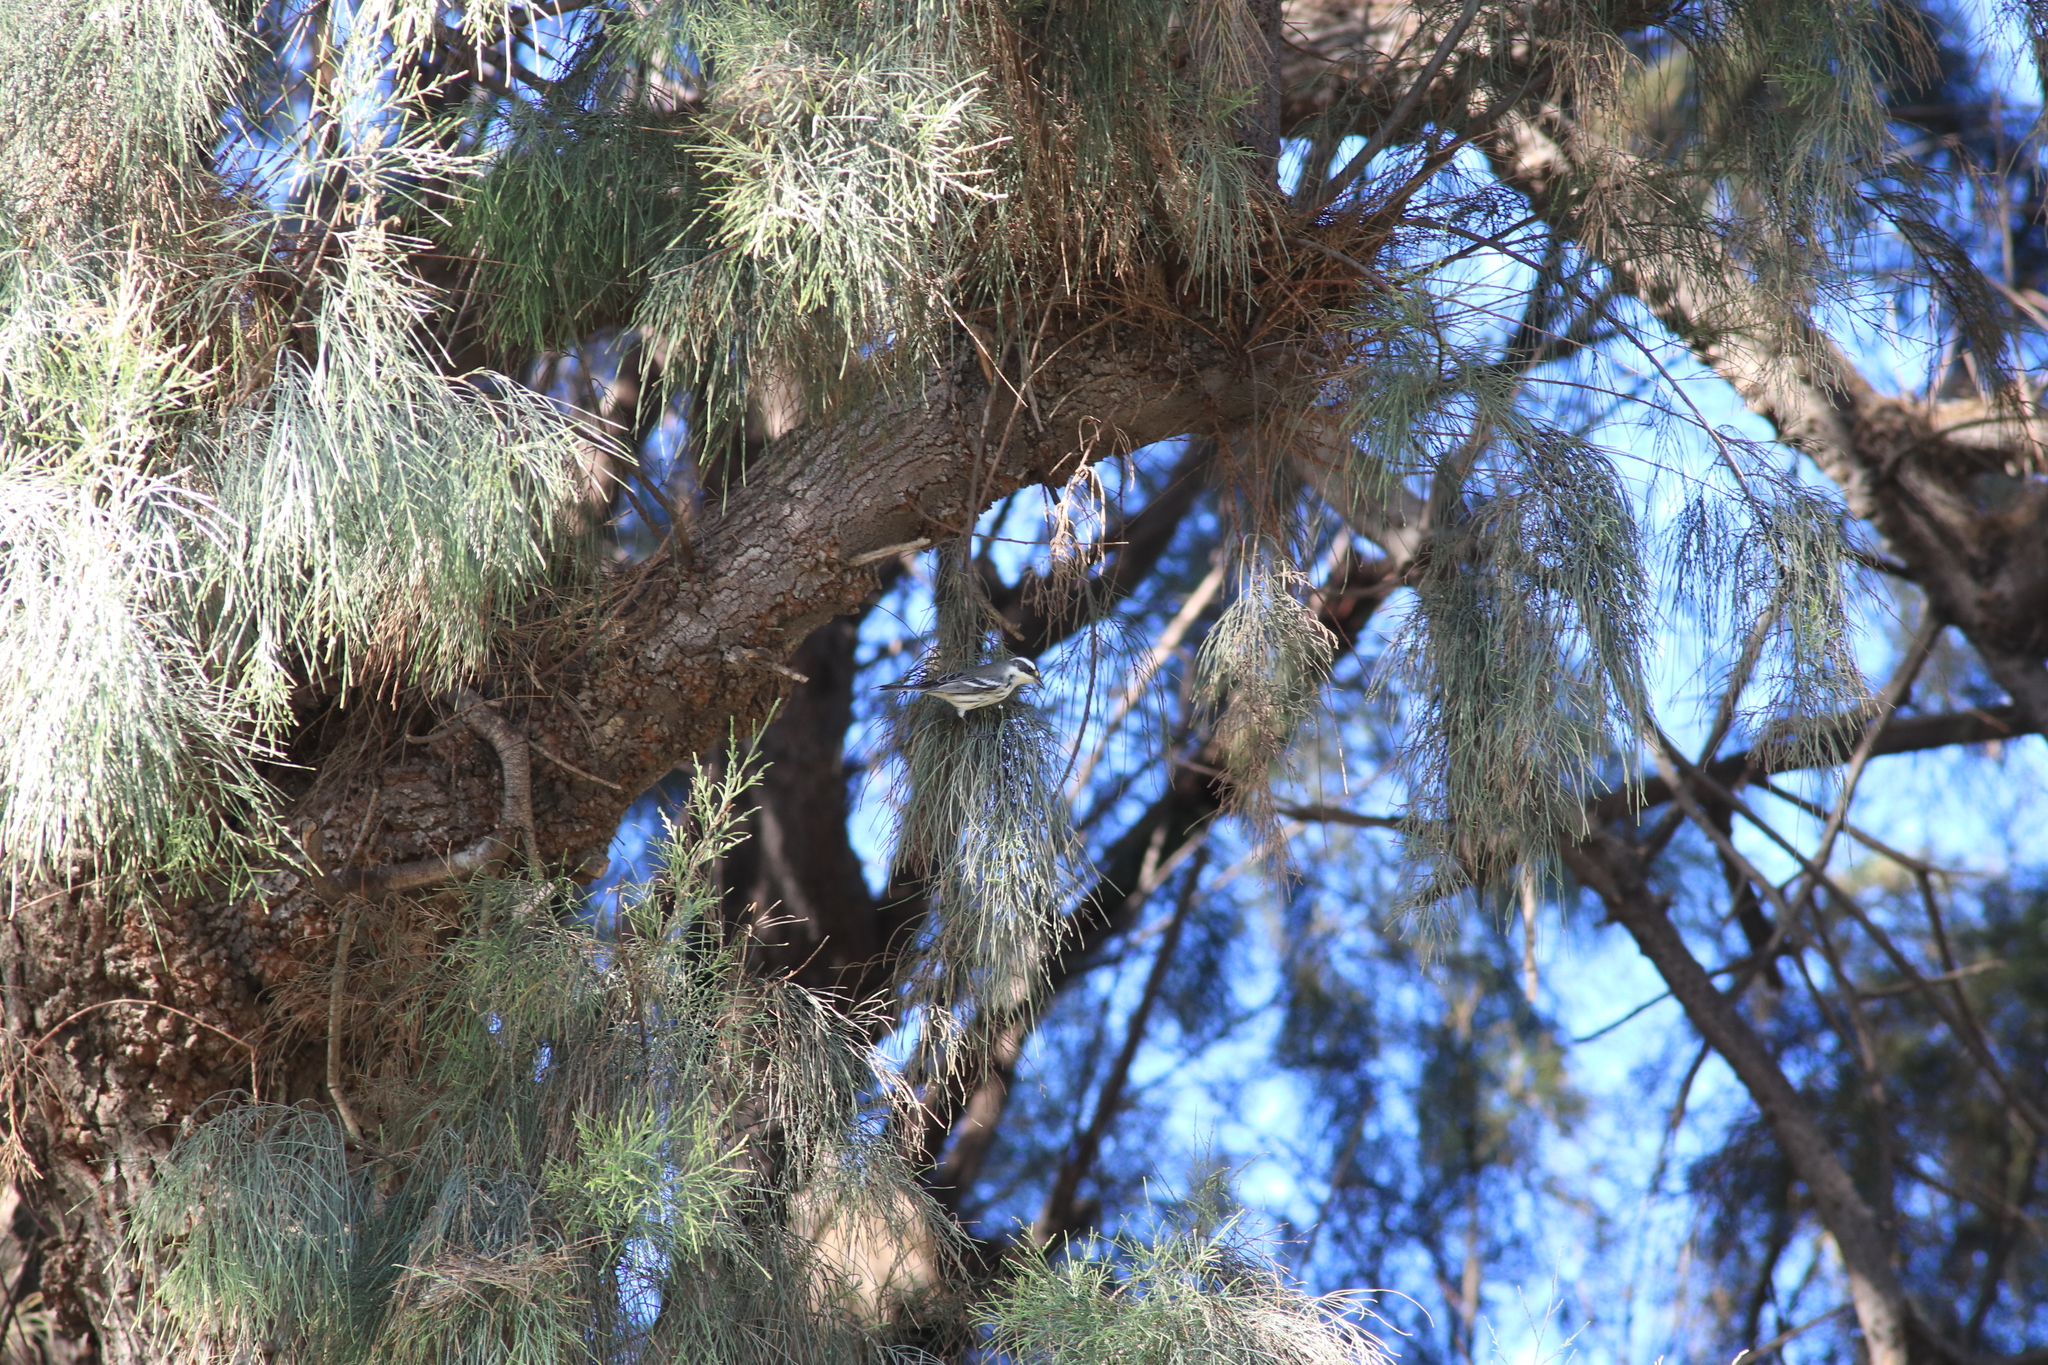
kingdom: Animalia
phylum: Chordata
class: Aves
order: Passeriformes
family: Parulidae
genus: Setophaga
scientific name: Setophaga nigrescens
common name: Black-throated gray warbler
